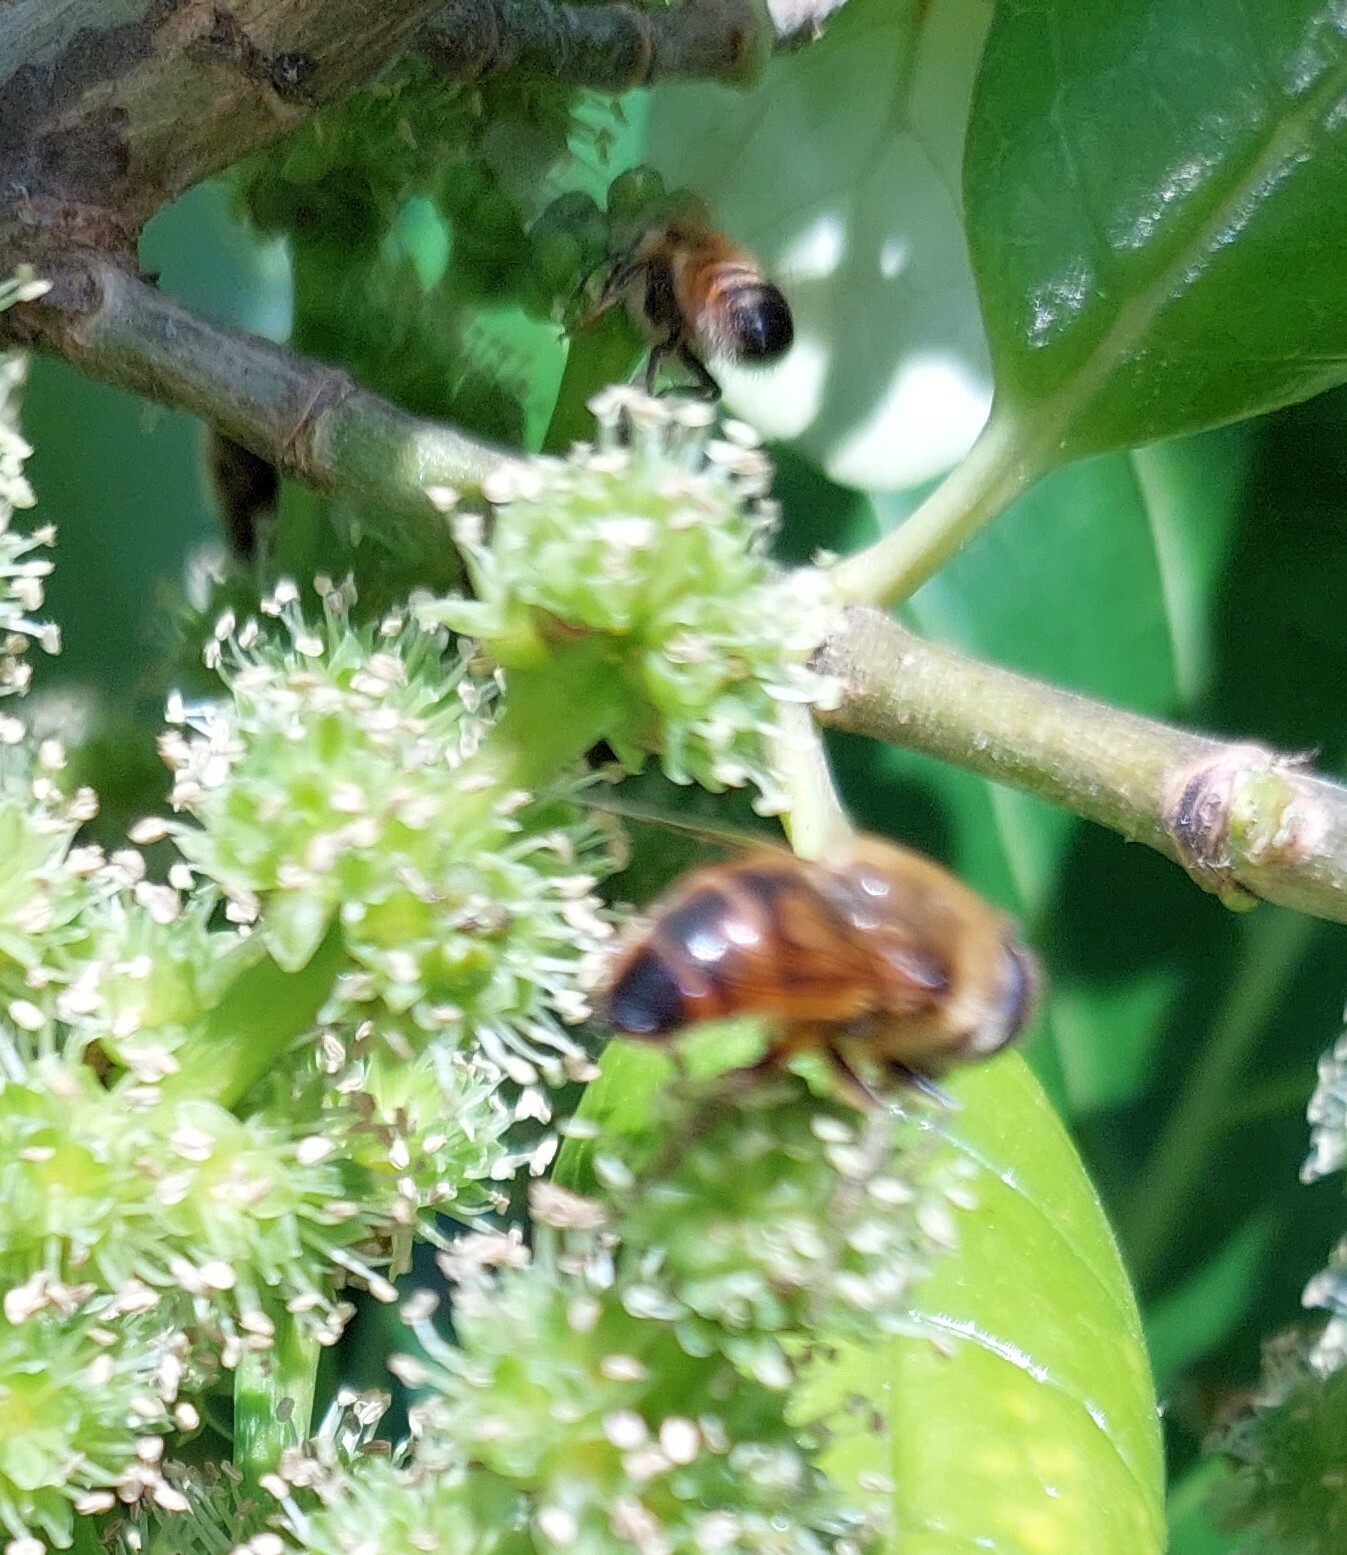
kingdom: Animalia
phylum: Arthropoda
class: Insecta
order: Diptera
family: Syrphidae
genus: Eristalis
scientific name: Eristalis tenax
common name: Drone fly
